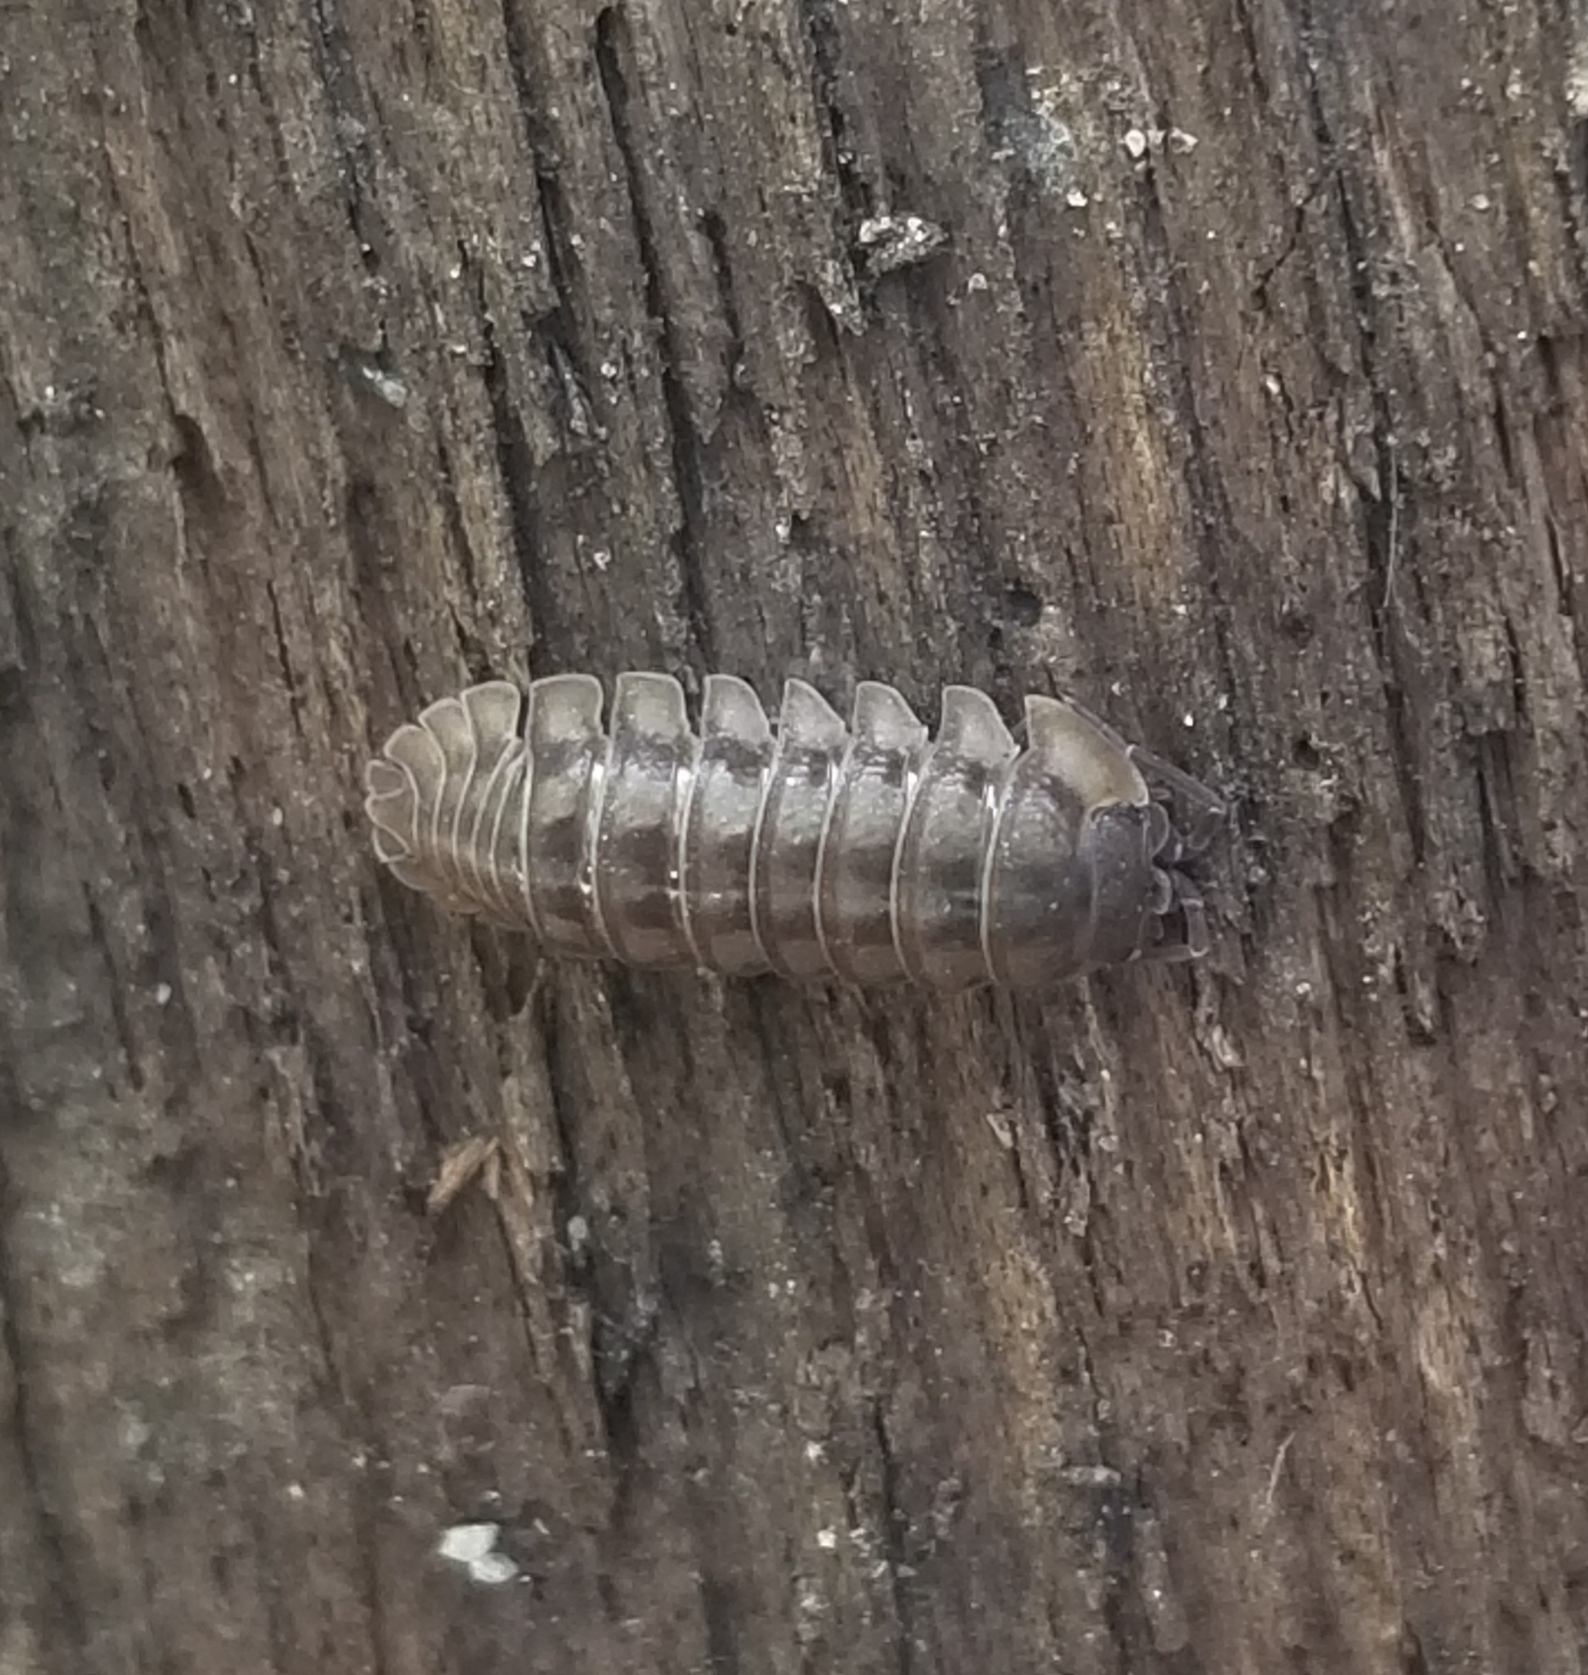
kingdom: Animalia
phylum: Arthropoda
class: Malacostraca
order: Isopoda
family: Armadillidiidae
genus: Armadillidium
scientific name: Armadillidium nasatum
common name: Isopod
